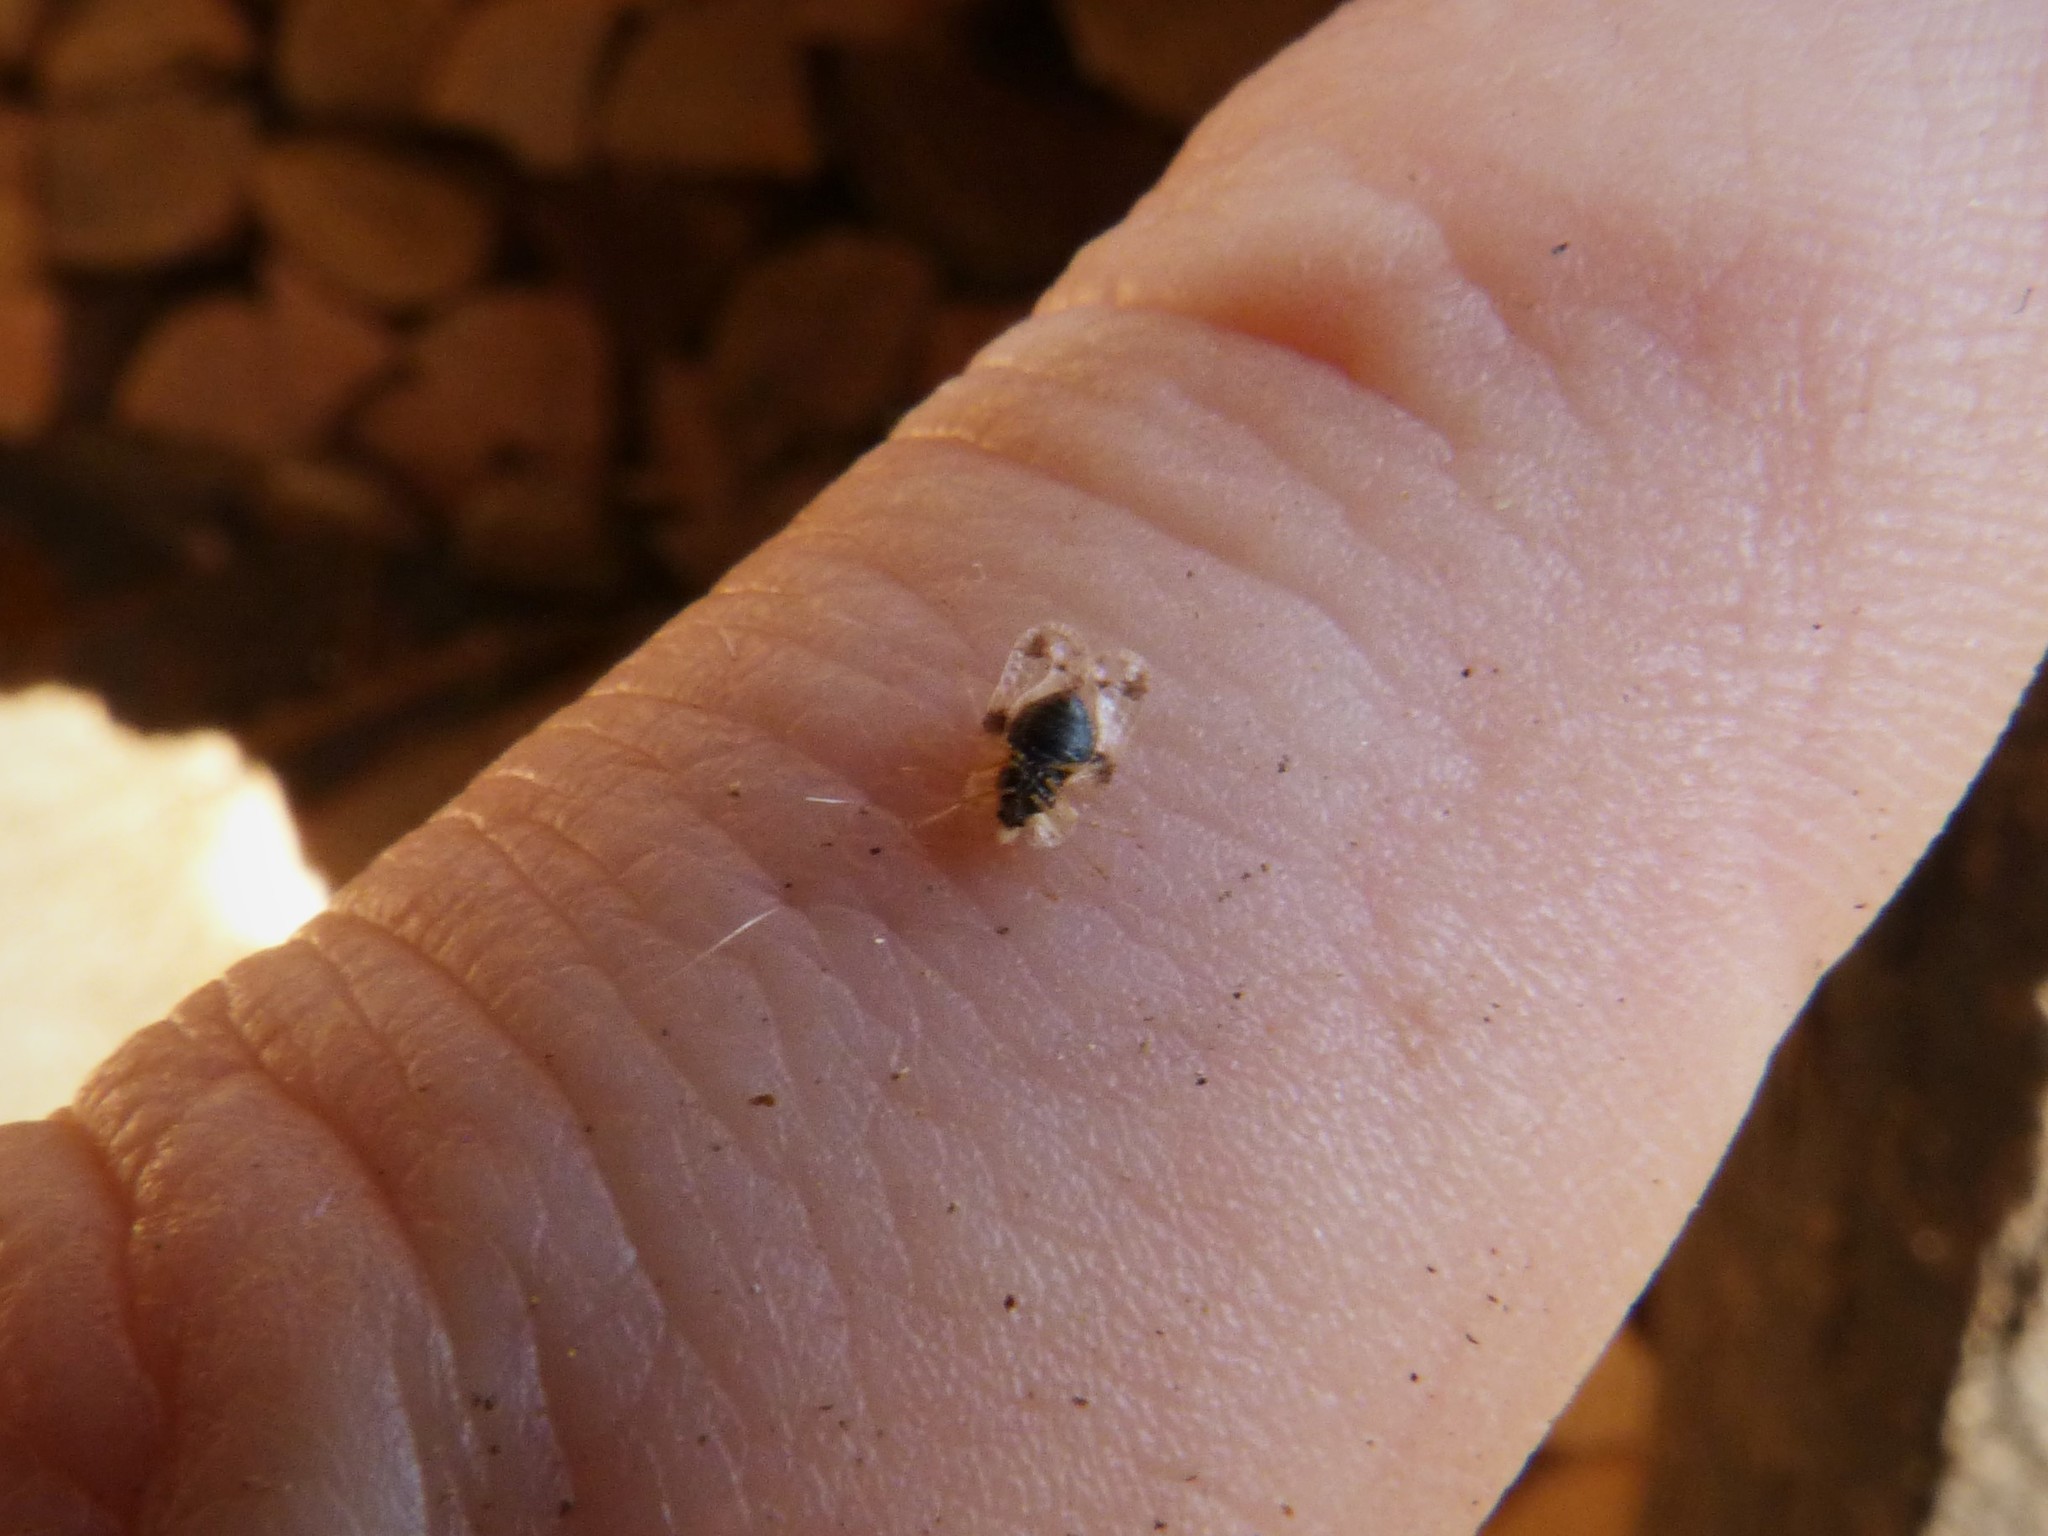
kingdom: Animalia
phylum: Arthropoda
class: Insecta
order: Hemiptera
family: Tingidae
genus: Corythucha
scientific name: Corythucha arcuata
